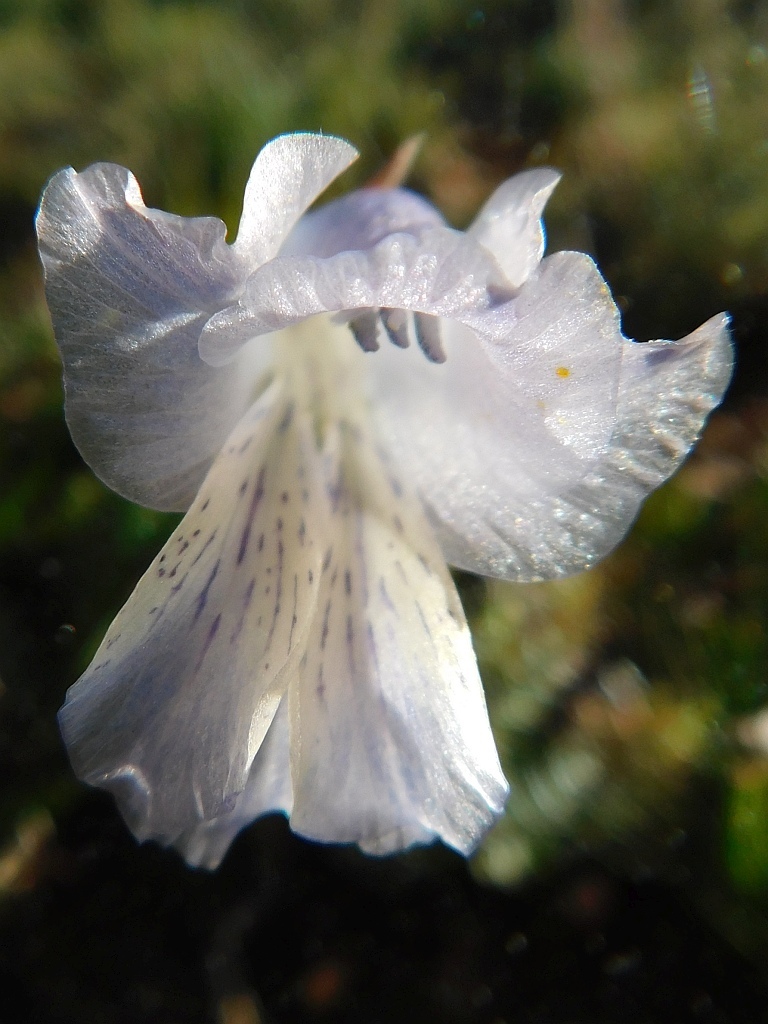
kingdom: Plantae
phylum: Tracheophyta
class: Liliopsida
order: Asparagales
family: Iridaceae
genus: Gladiolus
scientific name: Gladiolus gracilis
